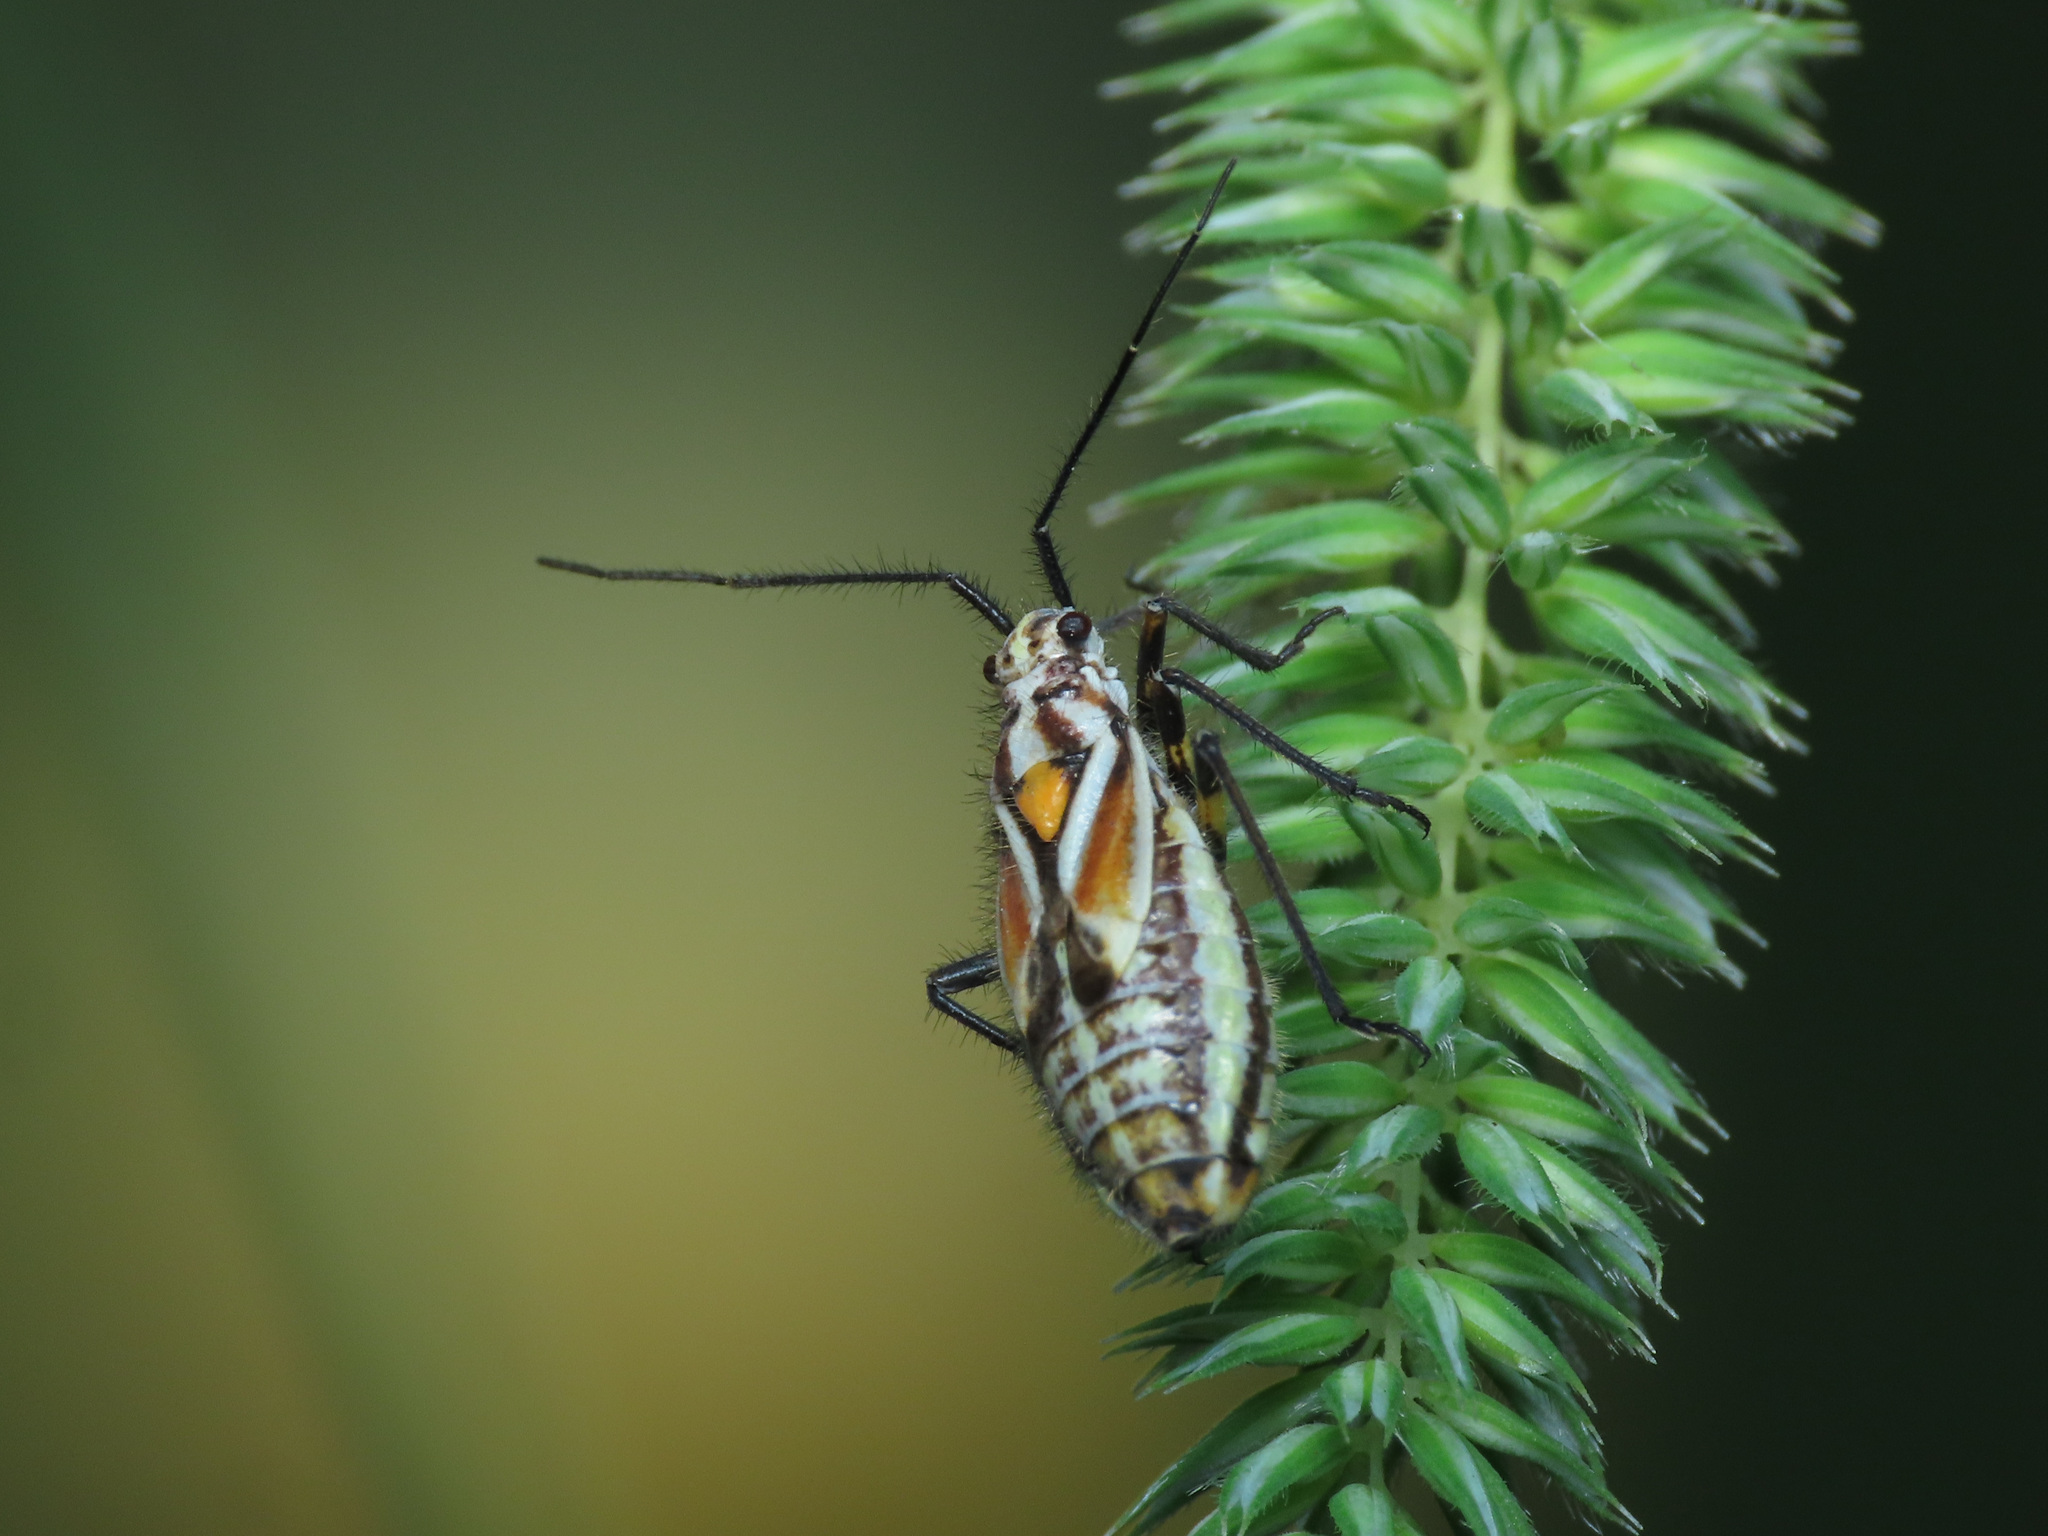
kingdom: Animalia
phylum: Arthropoda
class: Insecta
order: Hemiptera
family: Miridae
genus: Horistus
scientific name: Horistus elongatus
